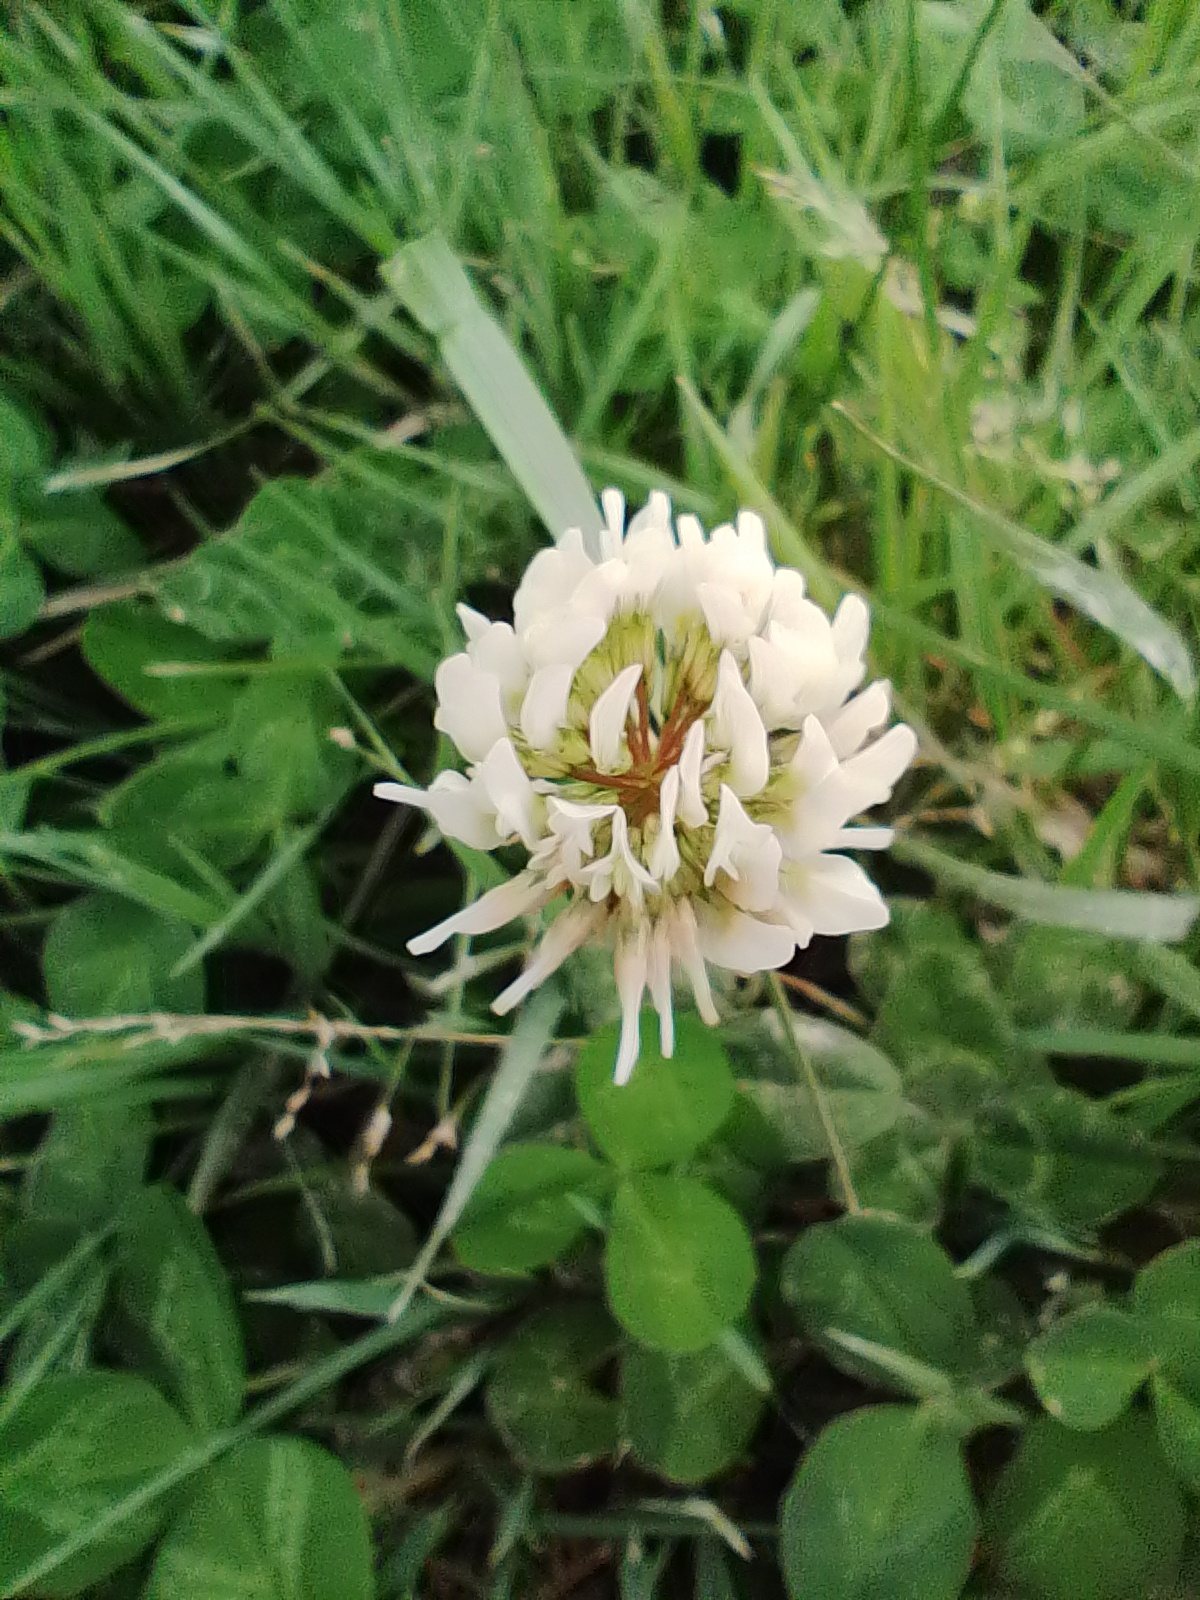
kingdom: Plantae
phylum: Tracheophyta
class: Magnoliopsida
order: Fabales
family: Fabaceae
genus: Trifolium
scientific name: Trifolium repens
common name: White clover
